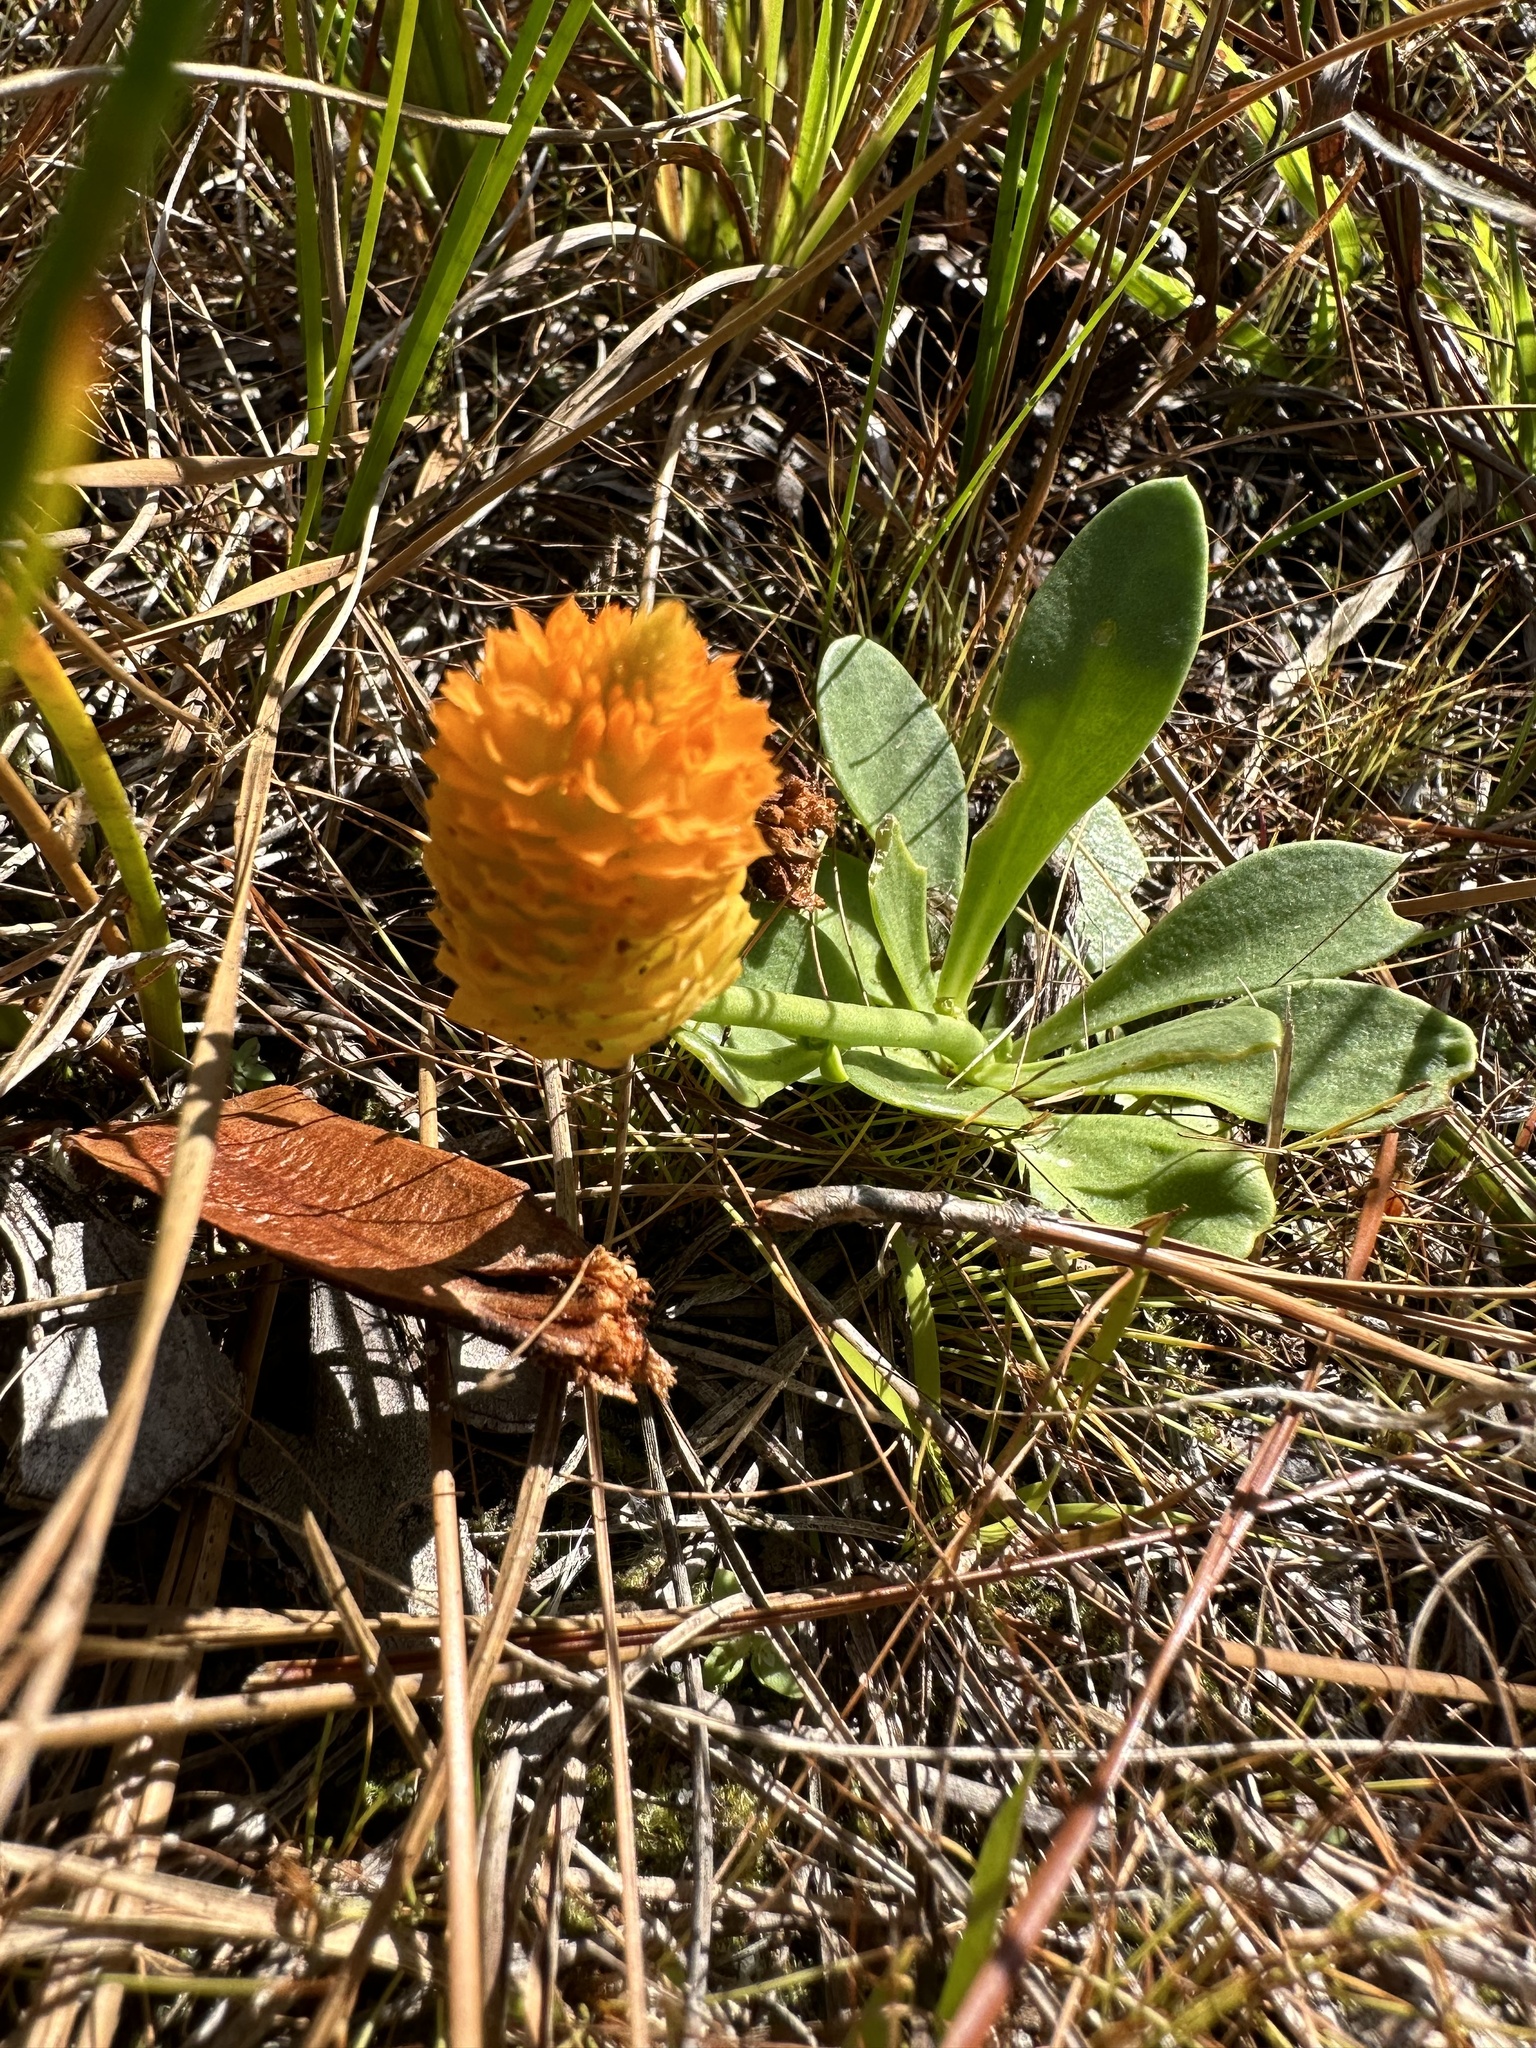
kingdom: Plantae
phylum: Tracheophyta
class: Magnoliopsida
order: Fabales
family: Polygalaceae
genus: Polygala
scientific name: Polygala lutea
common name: Orange milkwort
